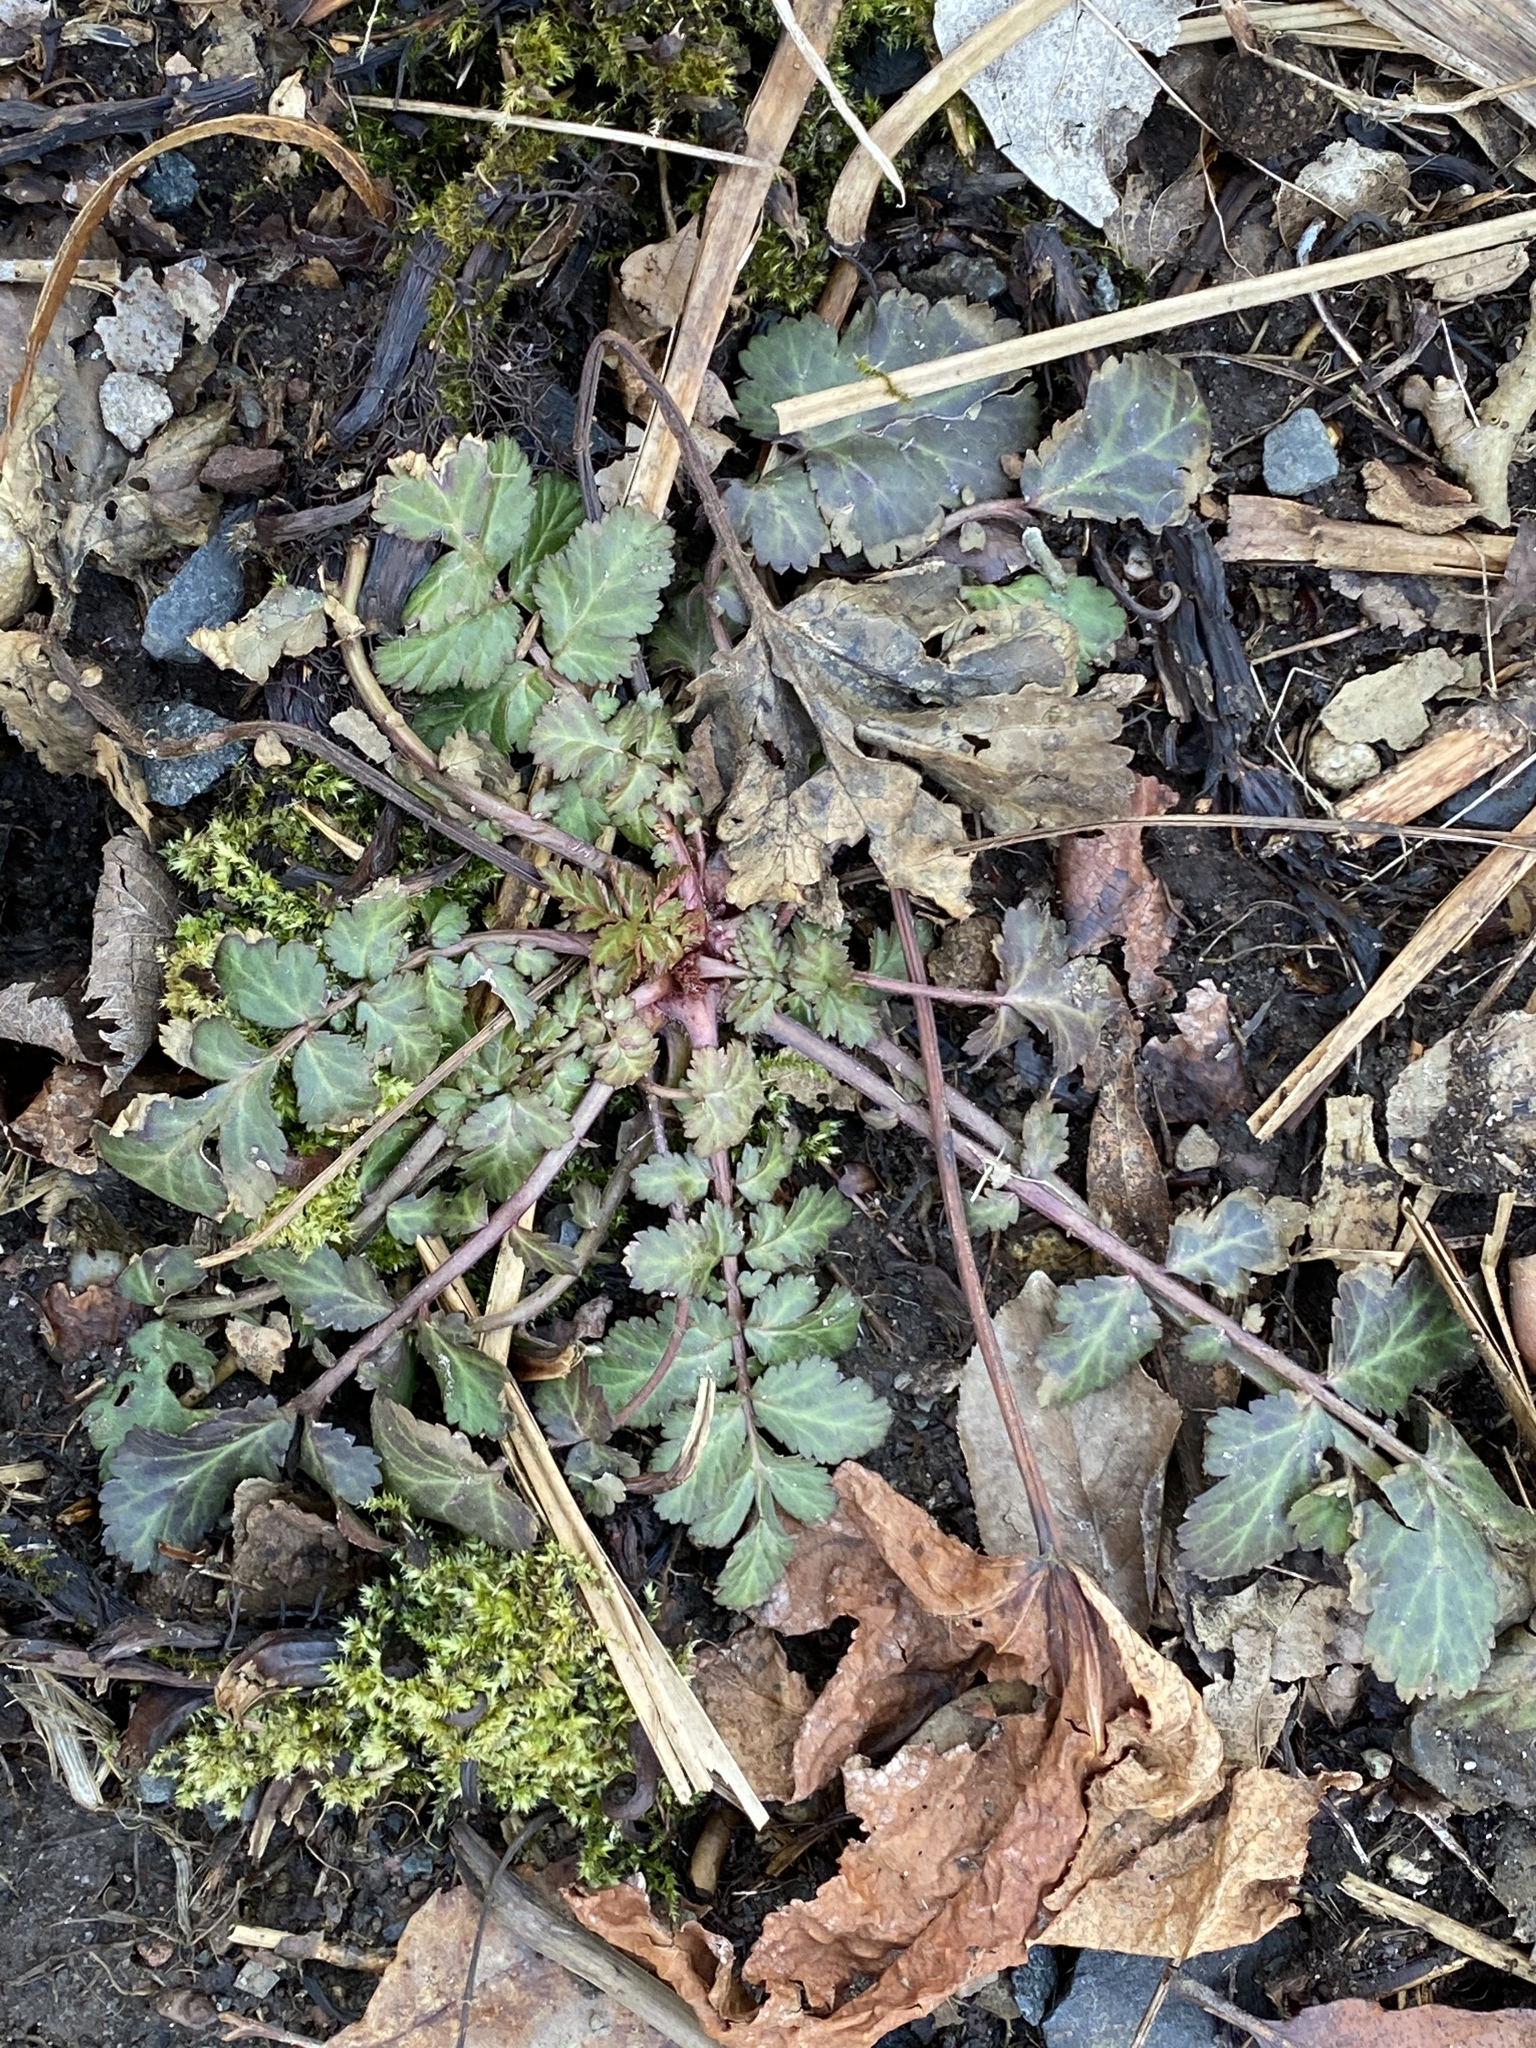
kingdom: Plantae
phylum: Tracheophyta
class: Magnoliopsida
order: Rosales
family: Rosaceae
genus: Geum
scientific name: Geum canadense
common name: White avens
